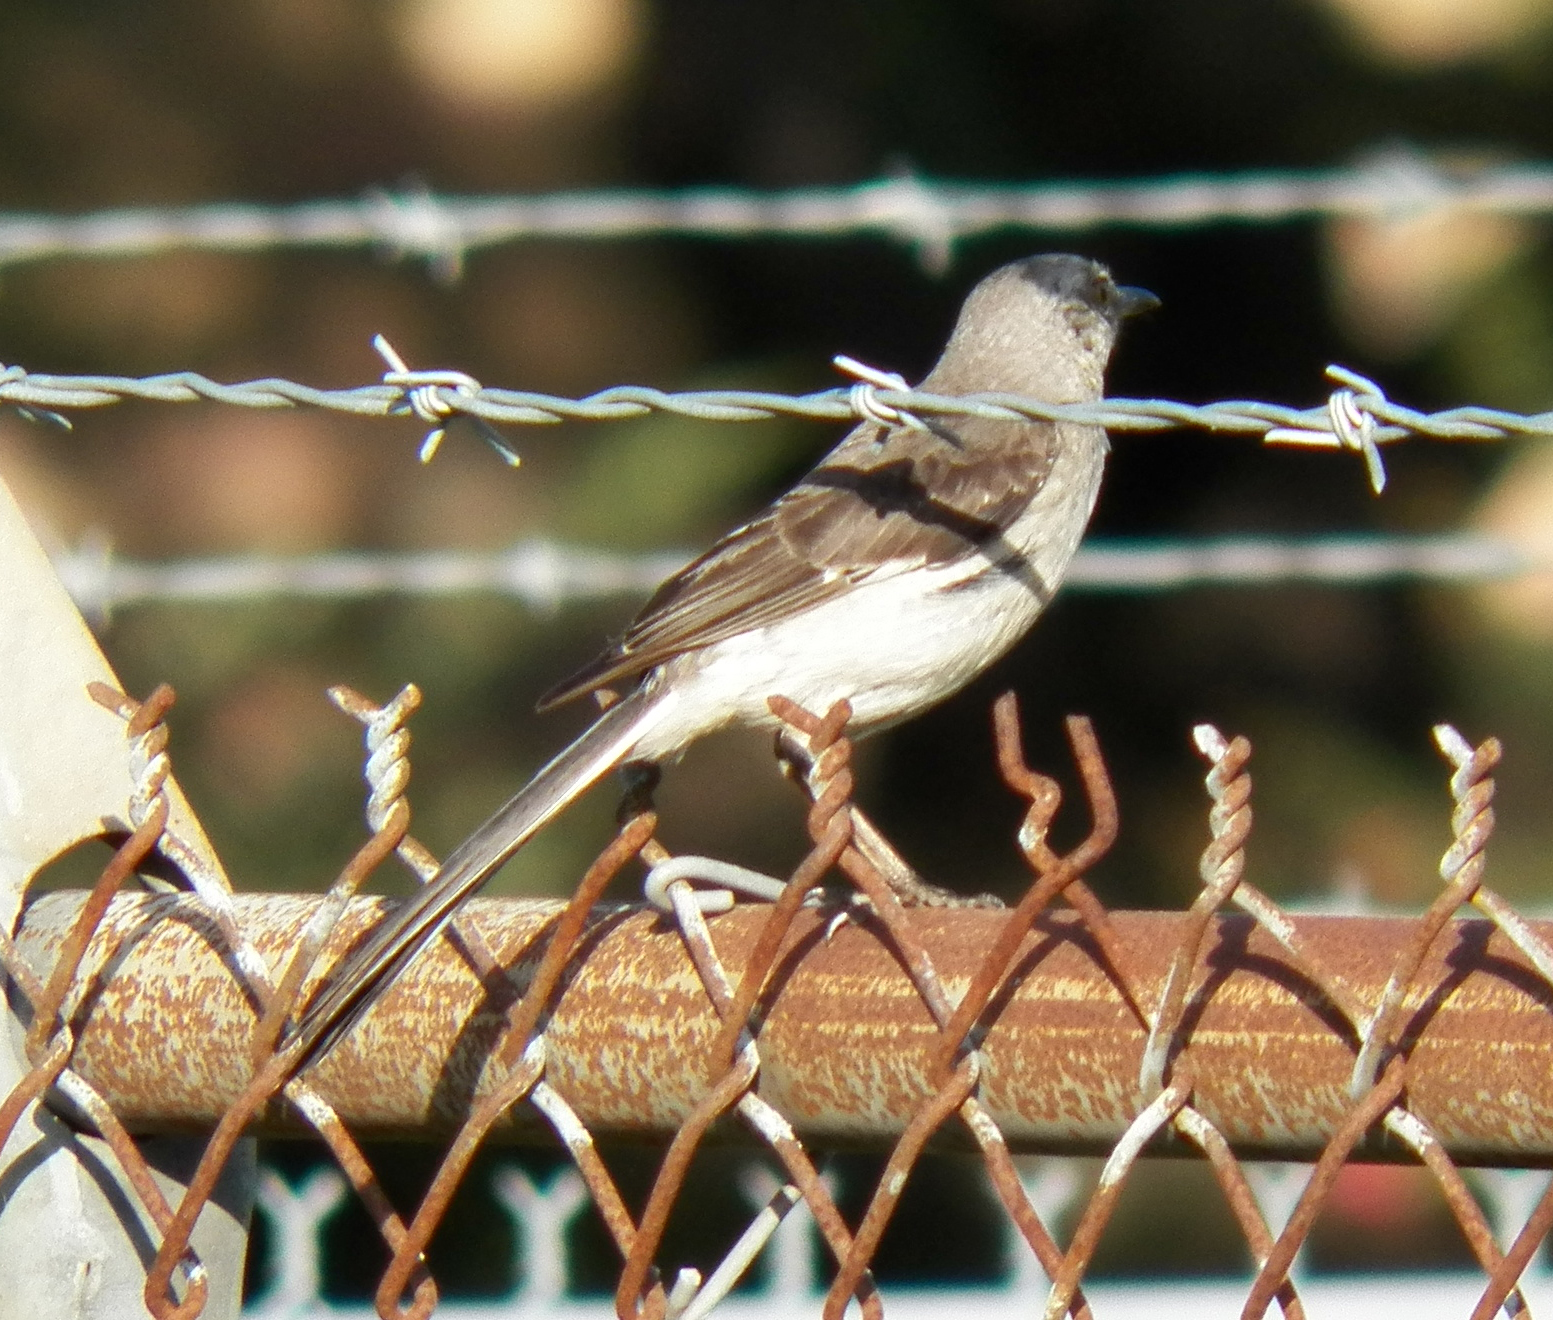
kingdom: Animalia
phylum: Chordata
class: Aves
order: Passeriformes
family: Mimidae
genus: Mimus
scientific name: Mimus polyglottos
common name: Northern mockingbird
